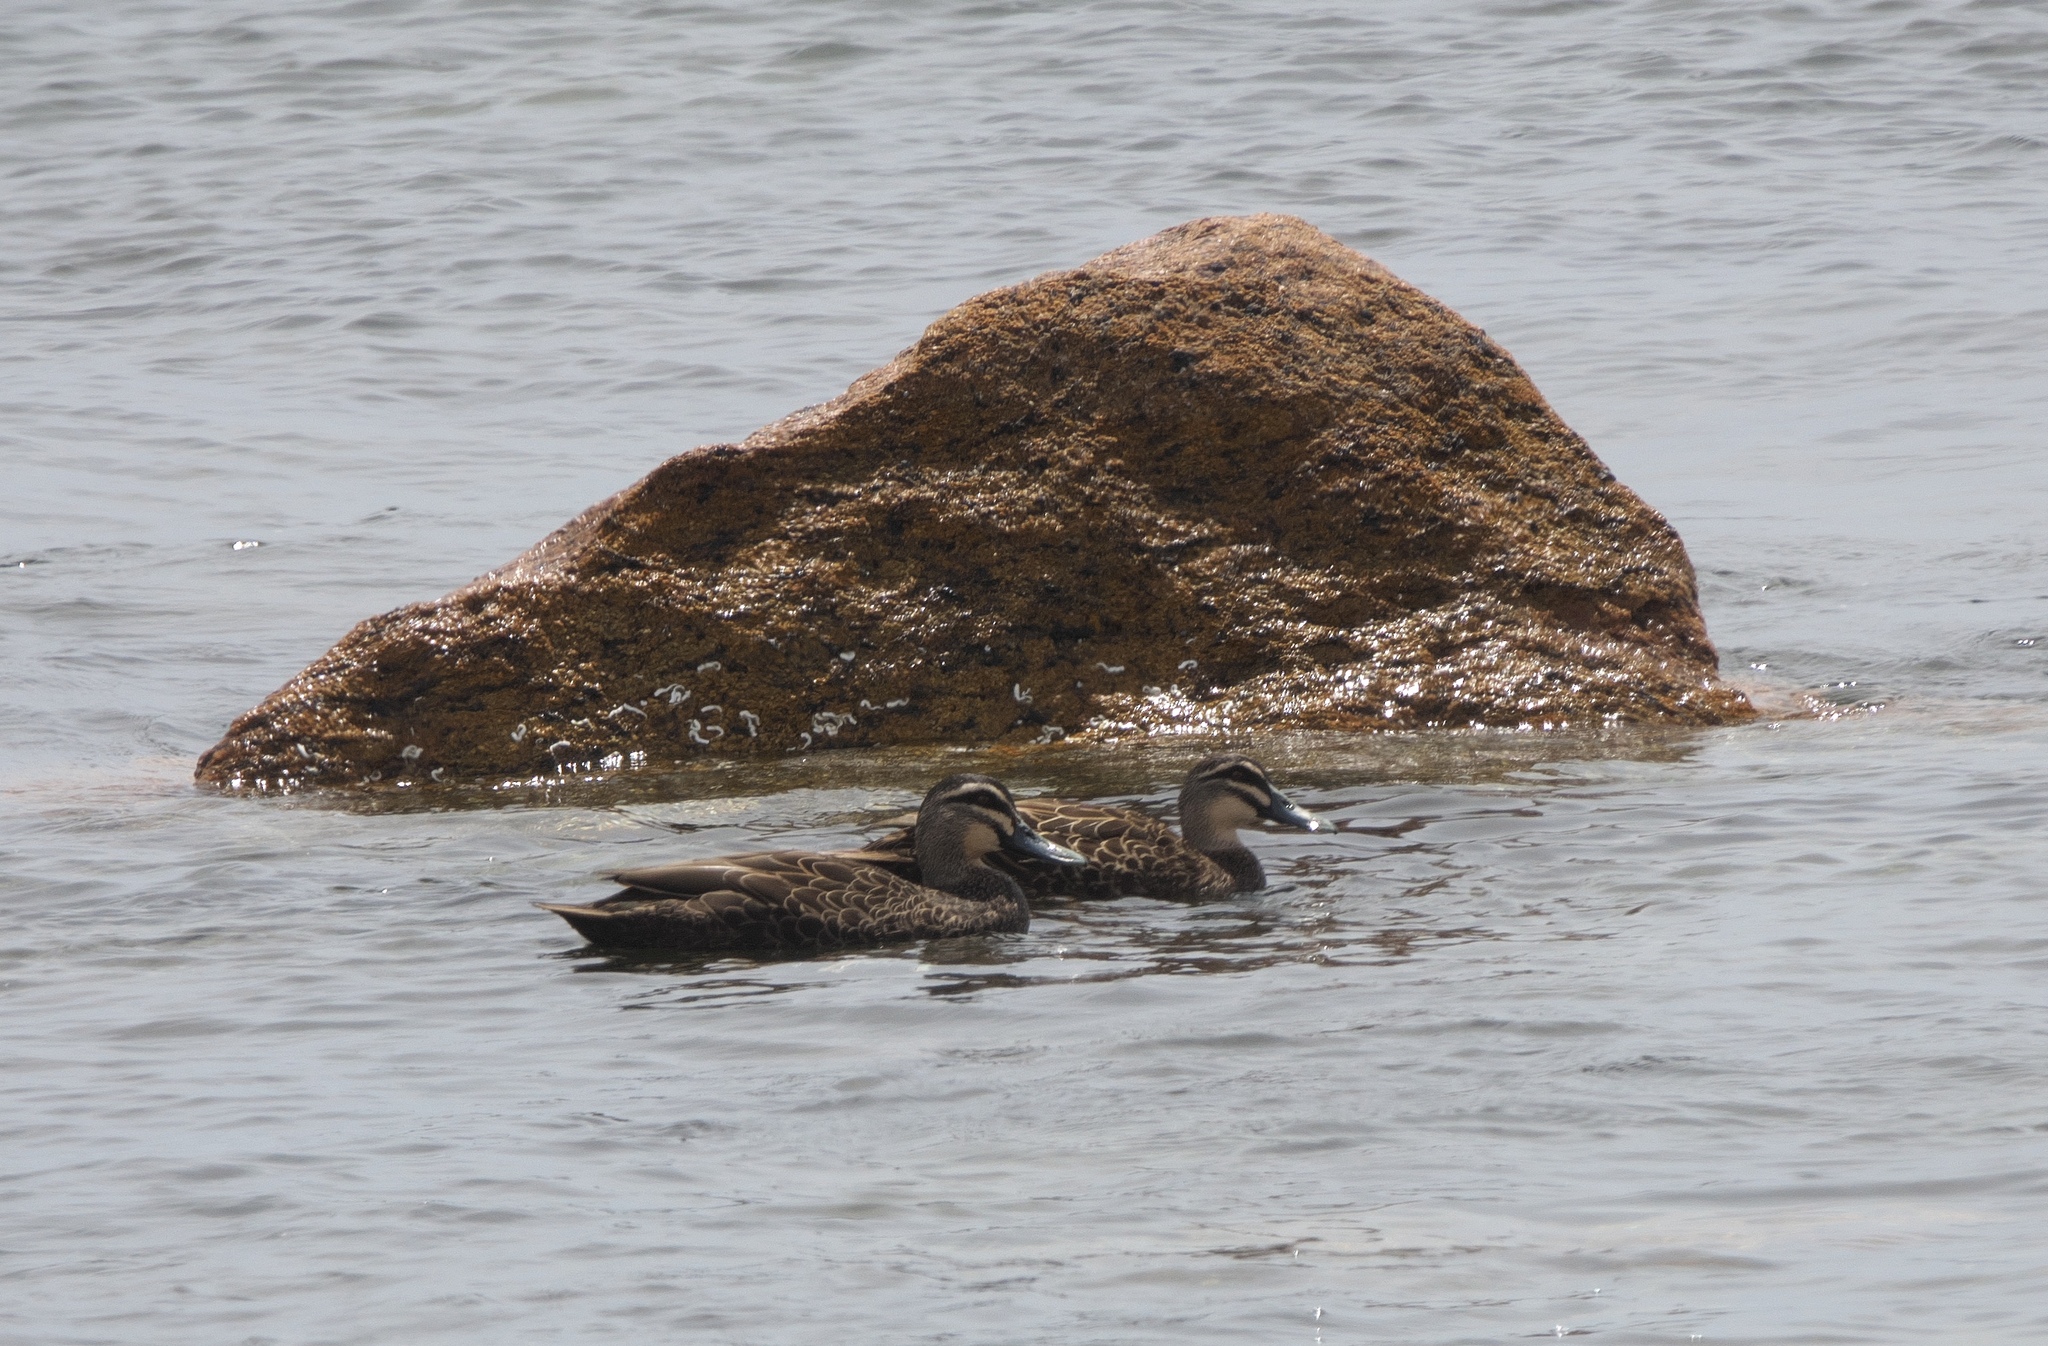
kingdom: Animalia
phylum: Chordata
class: Aves
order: Anseriformes
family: Anatidae
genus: Anas
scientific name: Anas superciliosa
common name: Pacific black duck
